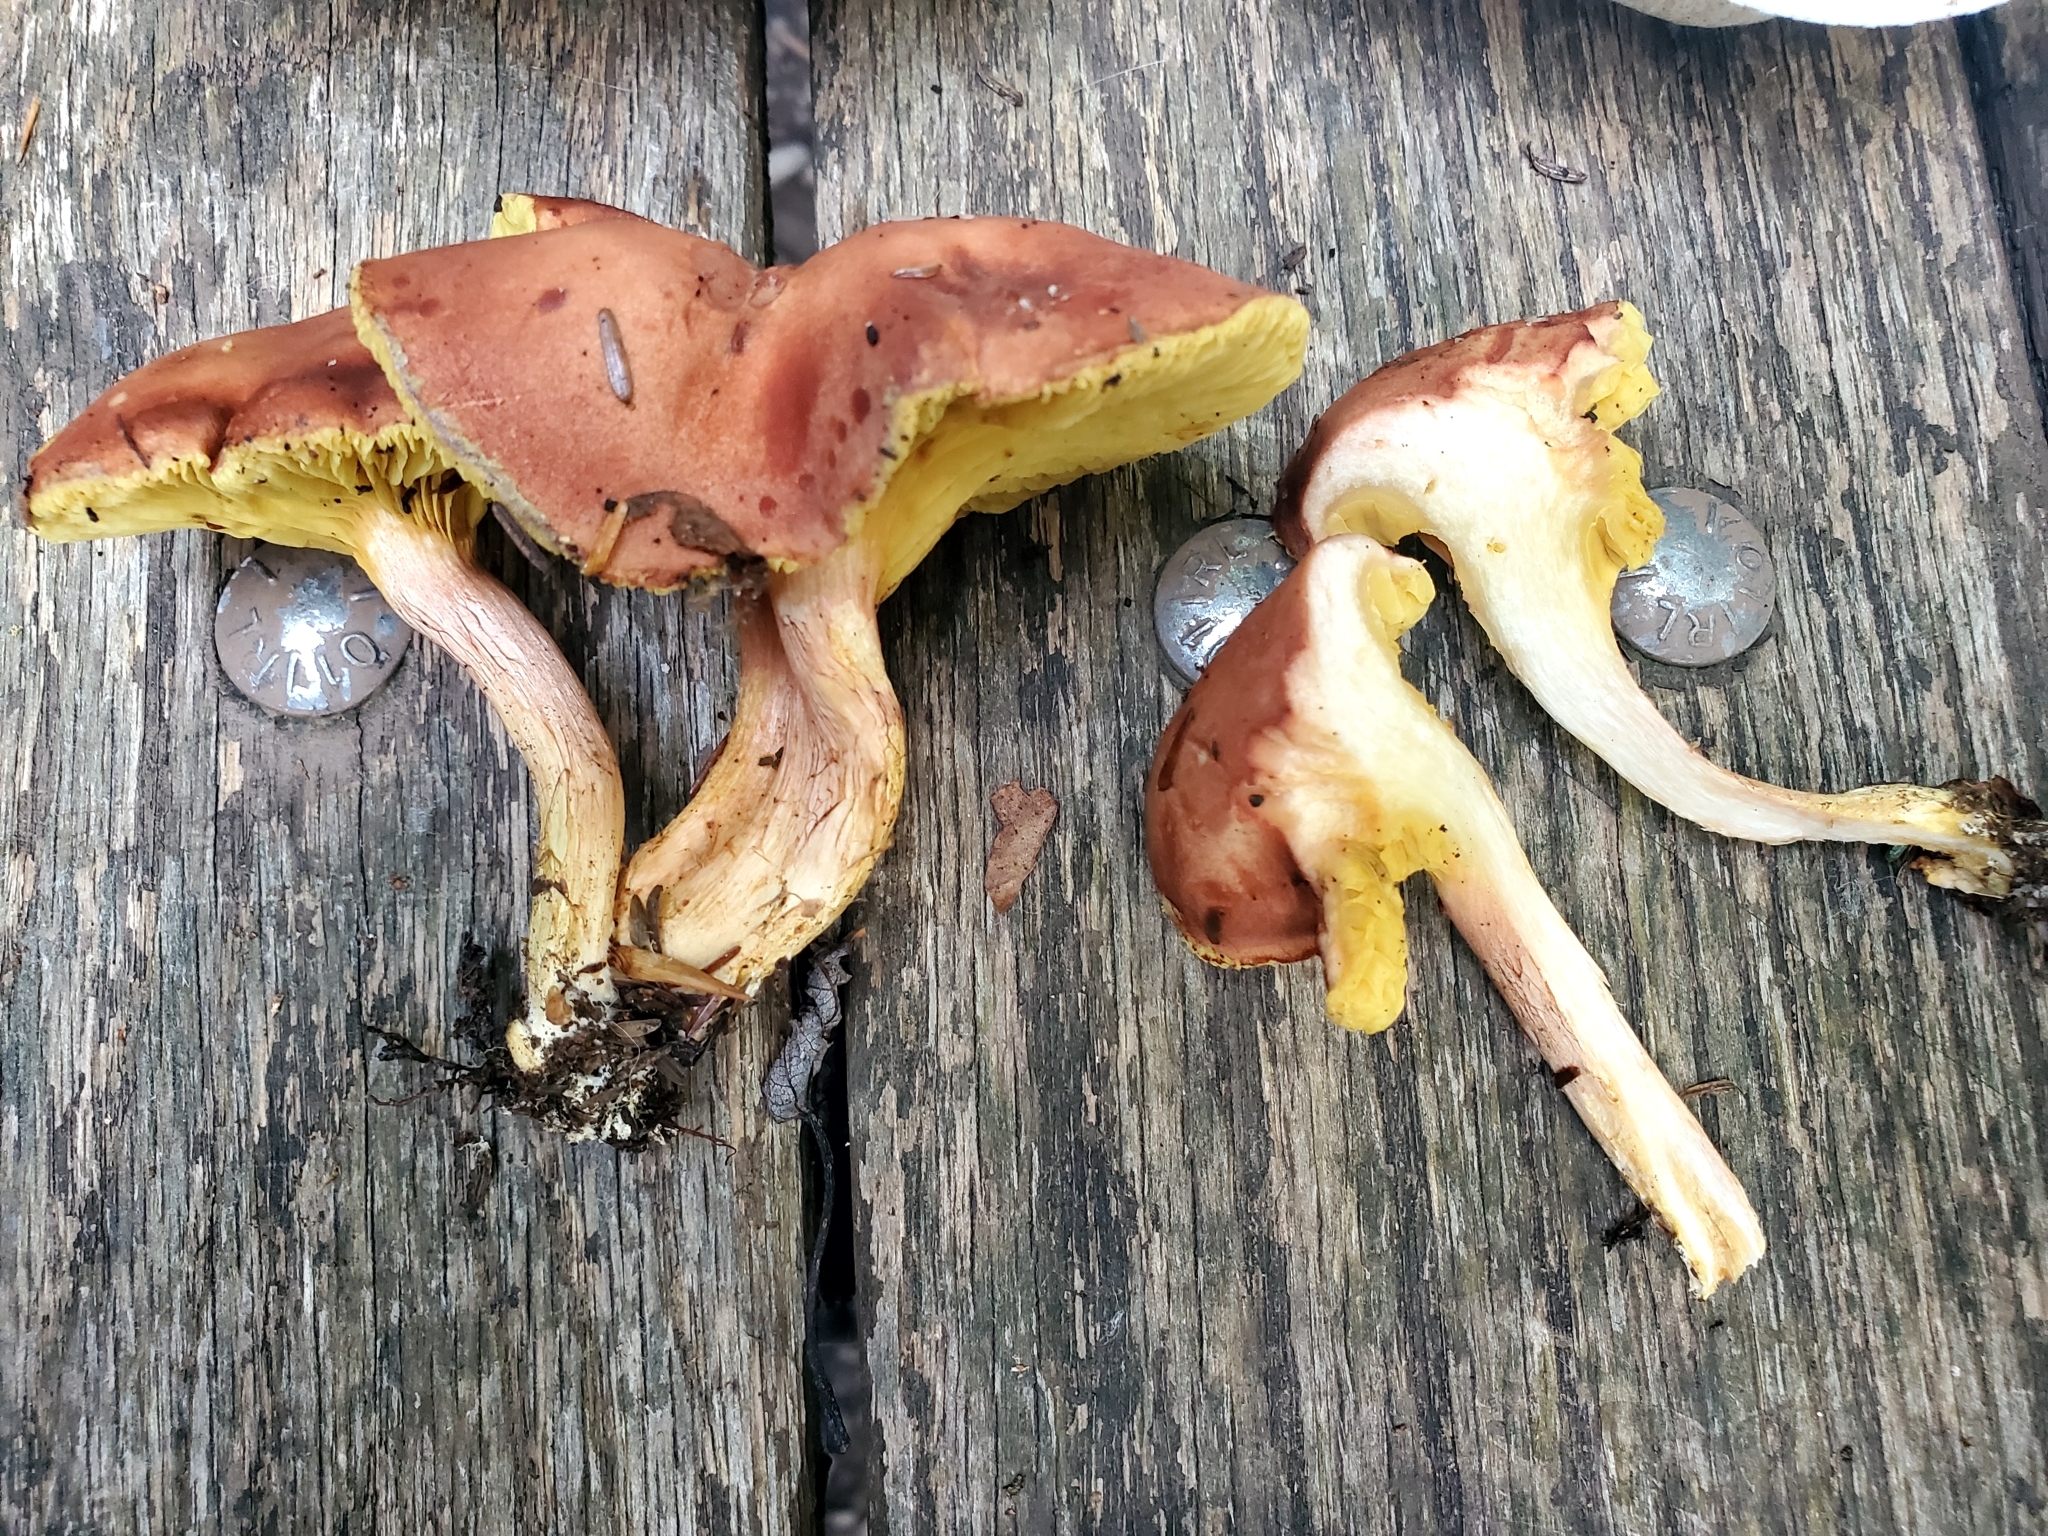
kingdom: Fungi
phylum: Basidiomycota
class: Agaricomycetes
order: Boletales
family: Boletaceae
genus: Phylloporus
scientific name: Phylloporus leucomycelinus
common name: Gilled bolete
